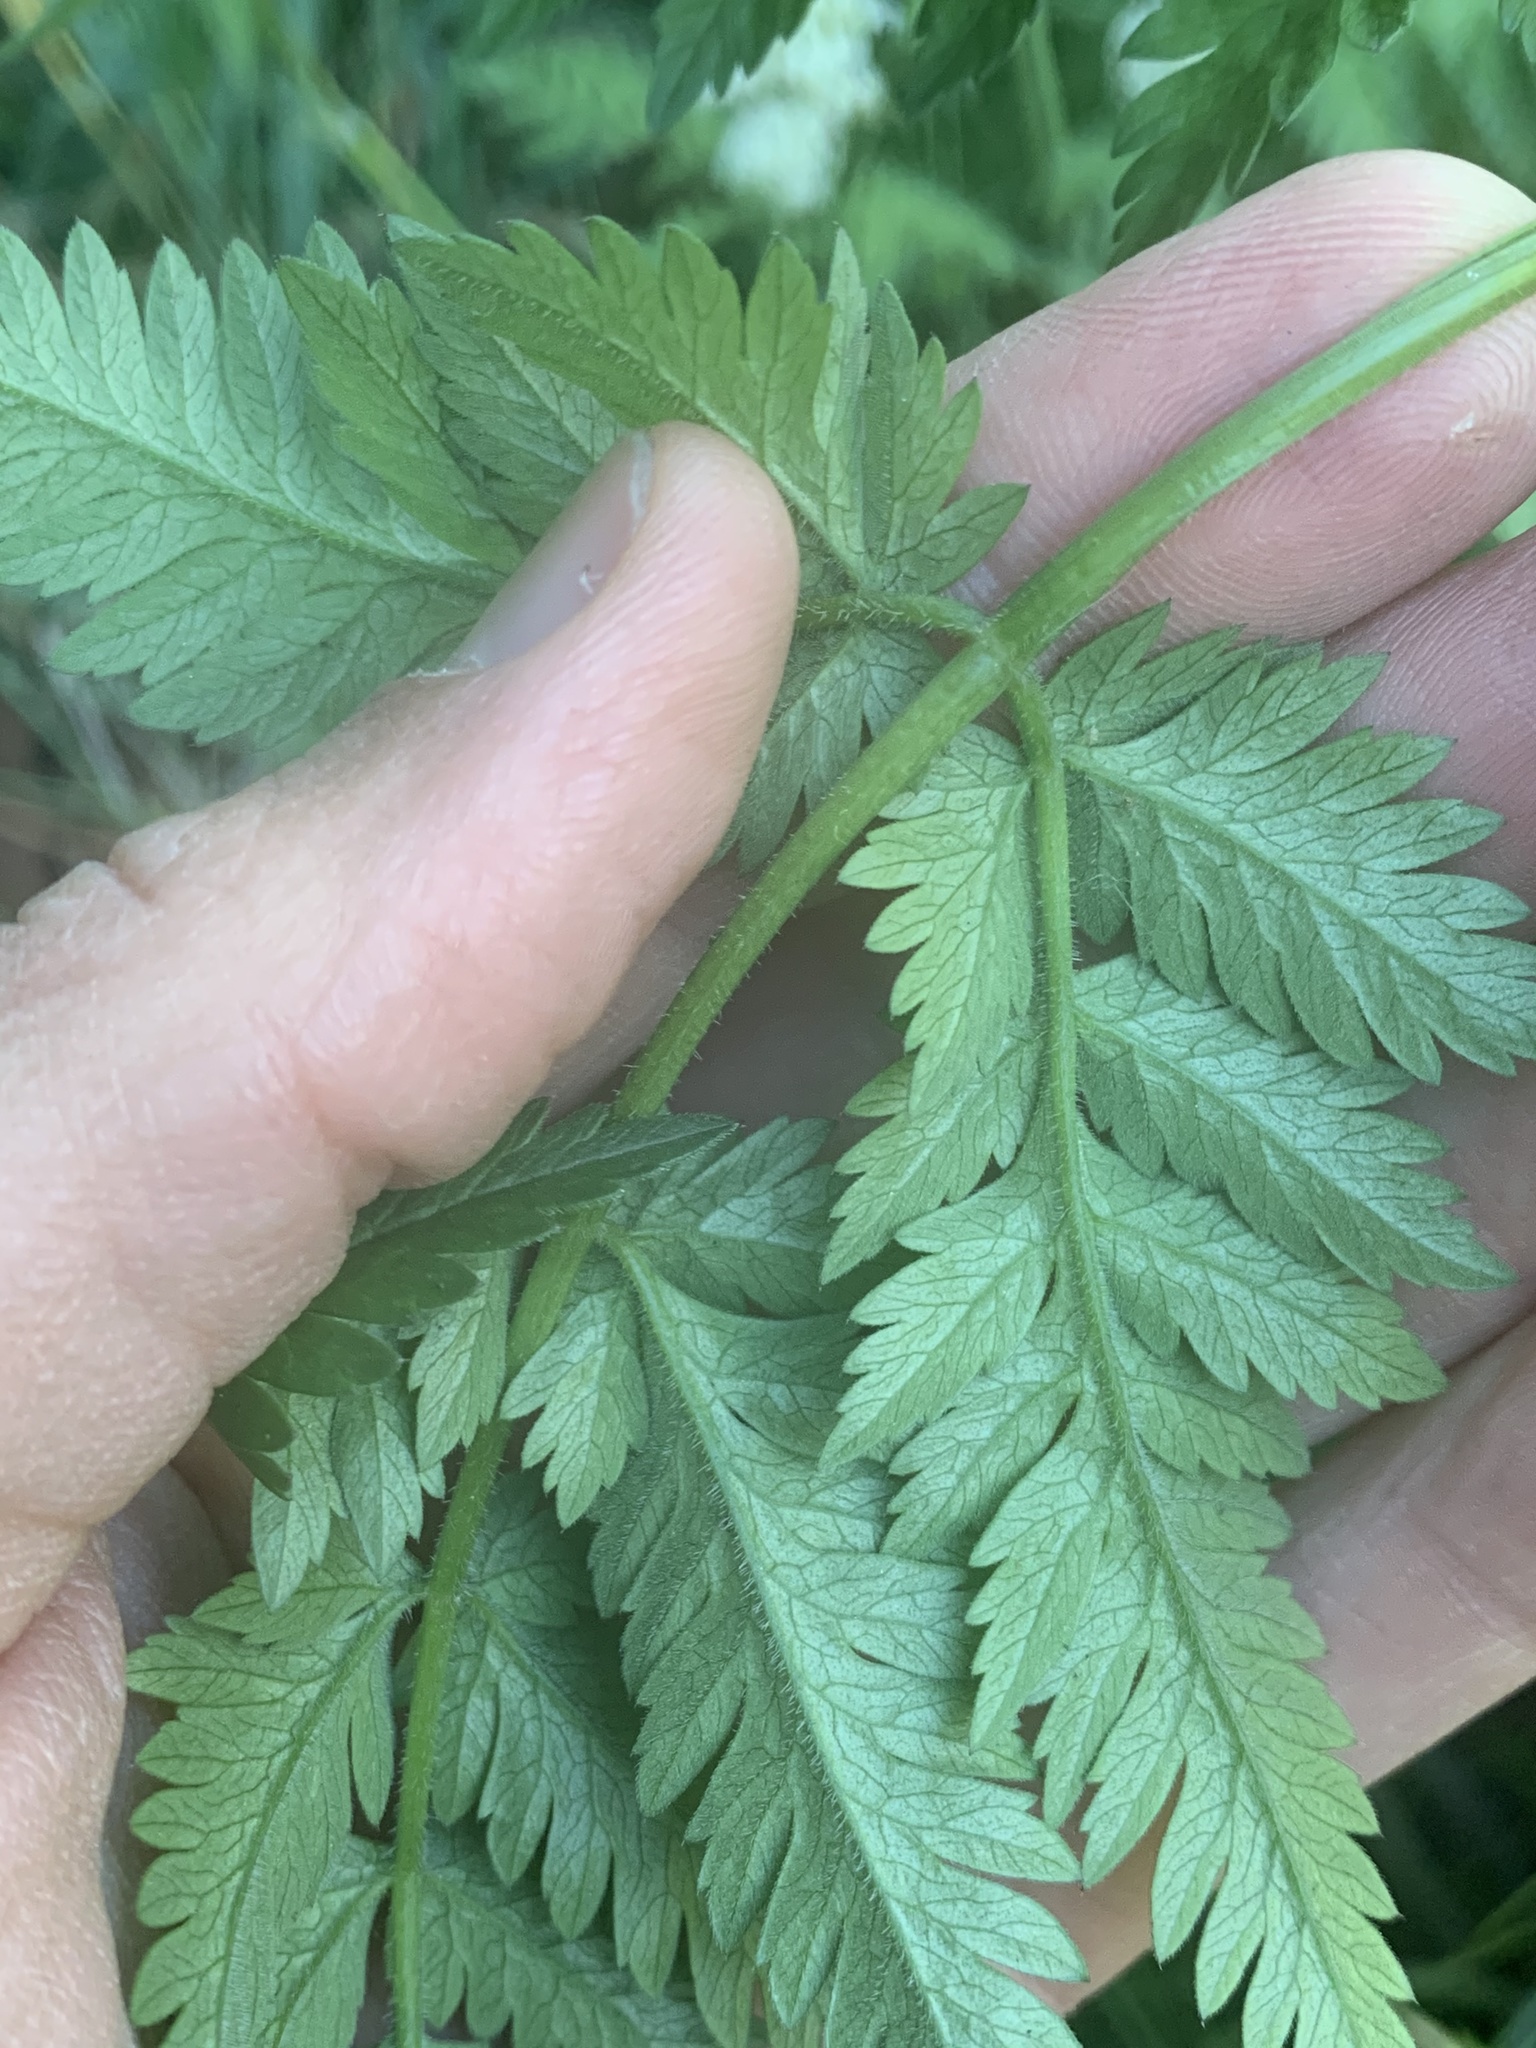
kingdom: Plantae
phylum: Tracheophyta
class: Magnoliopsida
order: Apiales
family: Apiaceae
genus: Anthriscus
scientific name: Anthriscus sylvestris
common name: Cow parsley
